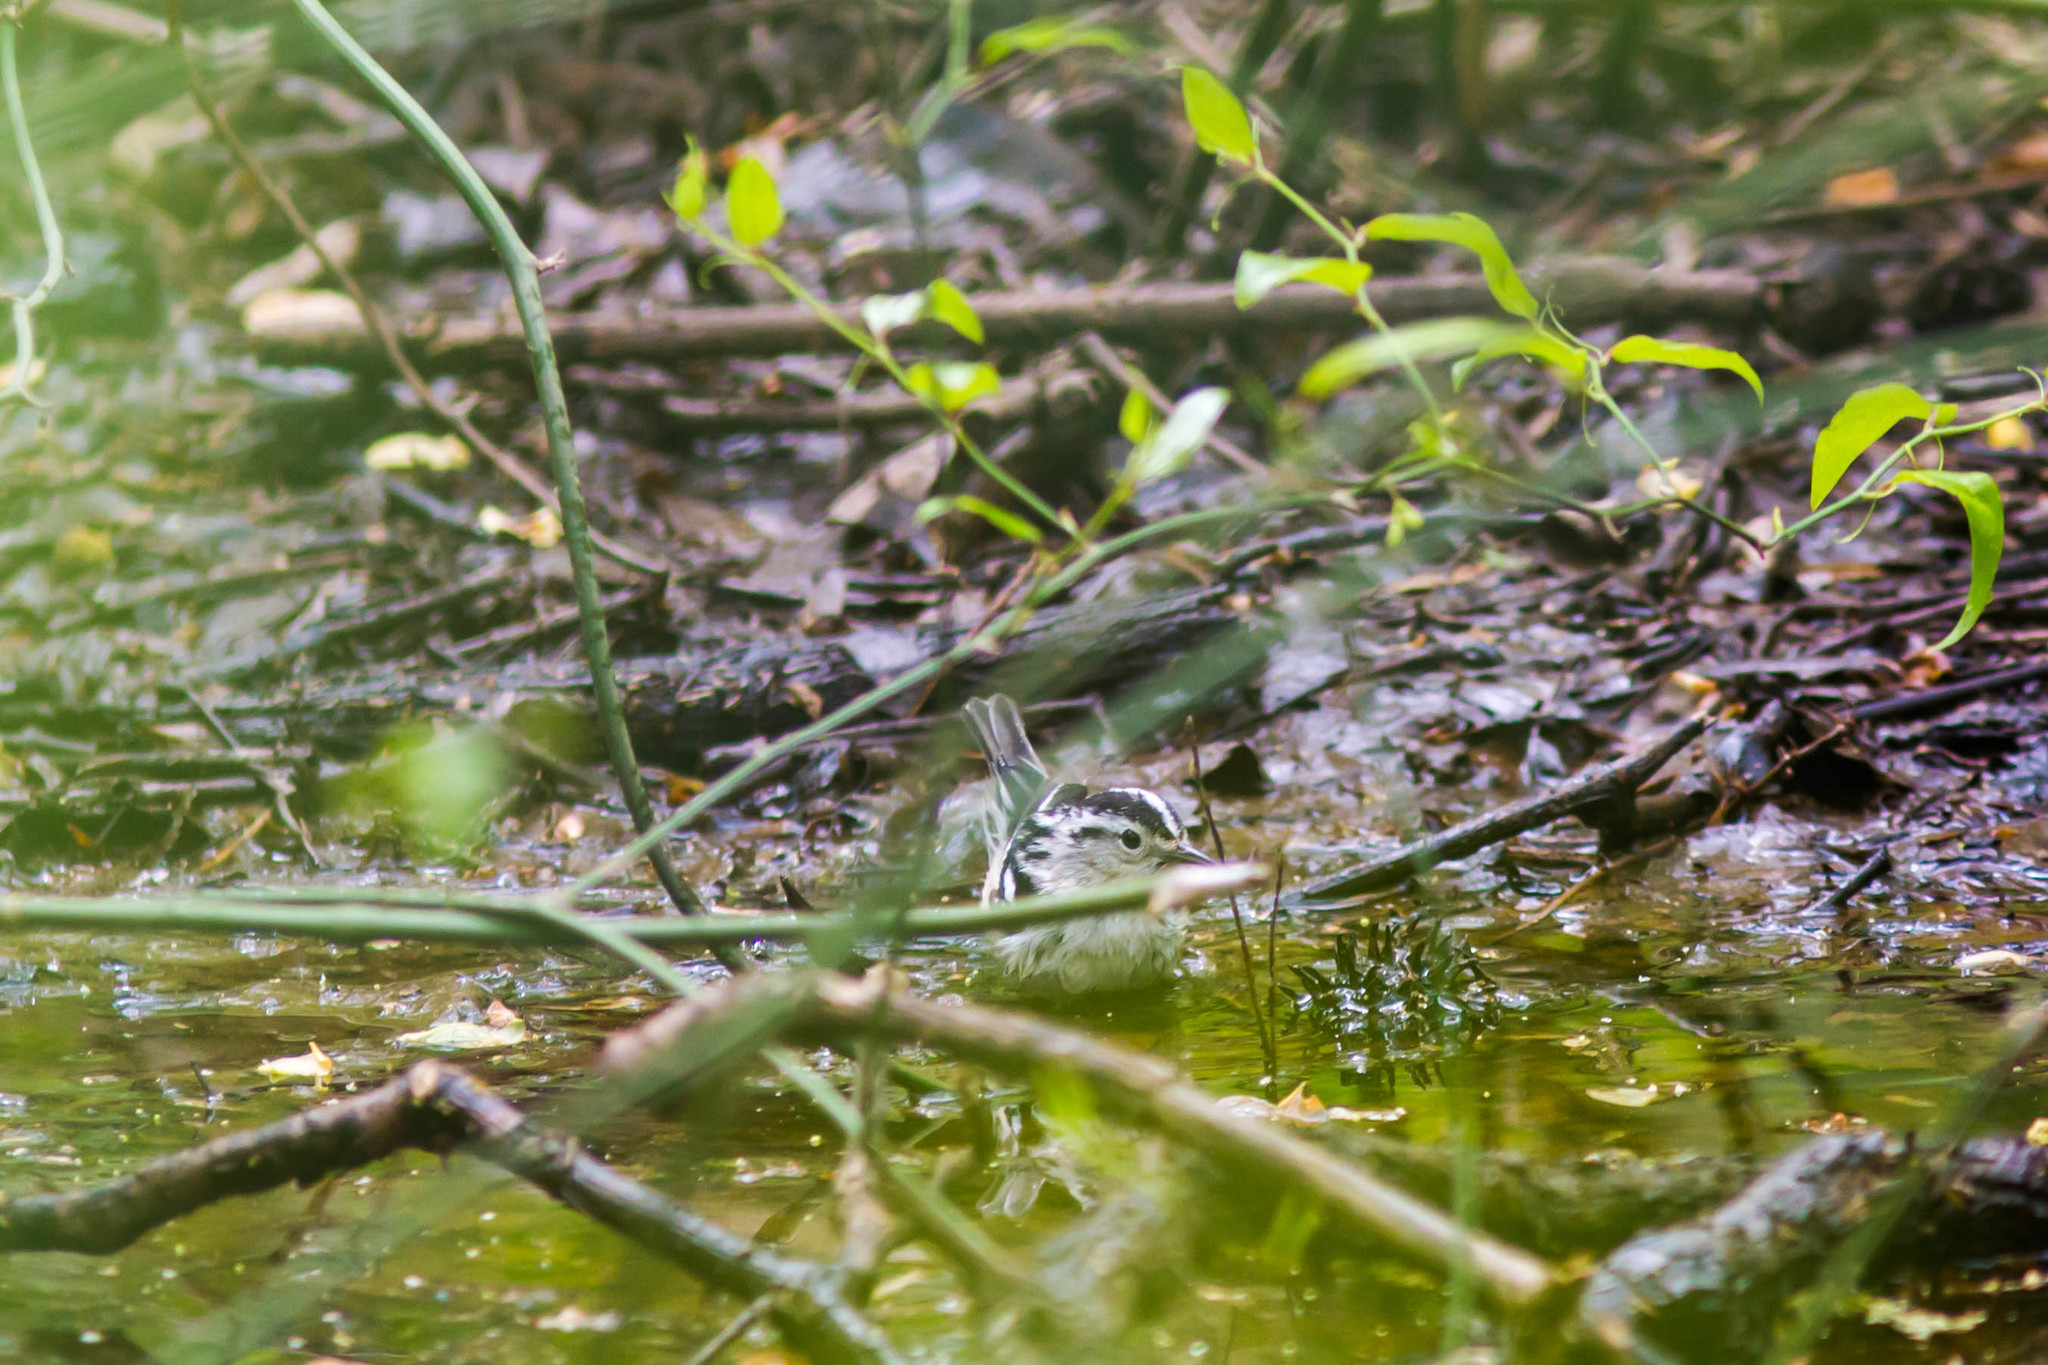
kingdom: Animalia
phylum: Chordata
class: Aves
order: Passeriformes
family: Parulidae
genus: Mniotilta
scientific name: Mniotilta varia
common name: Black-and-white warbler
